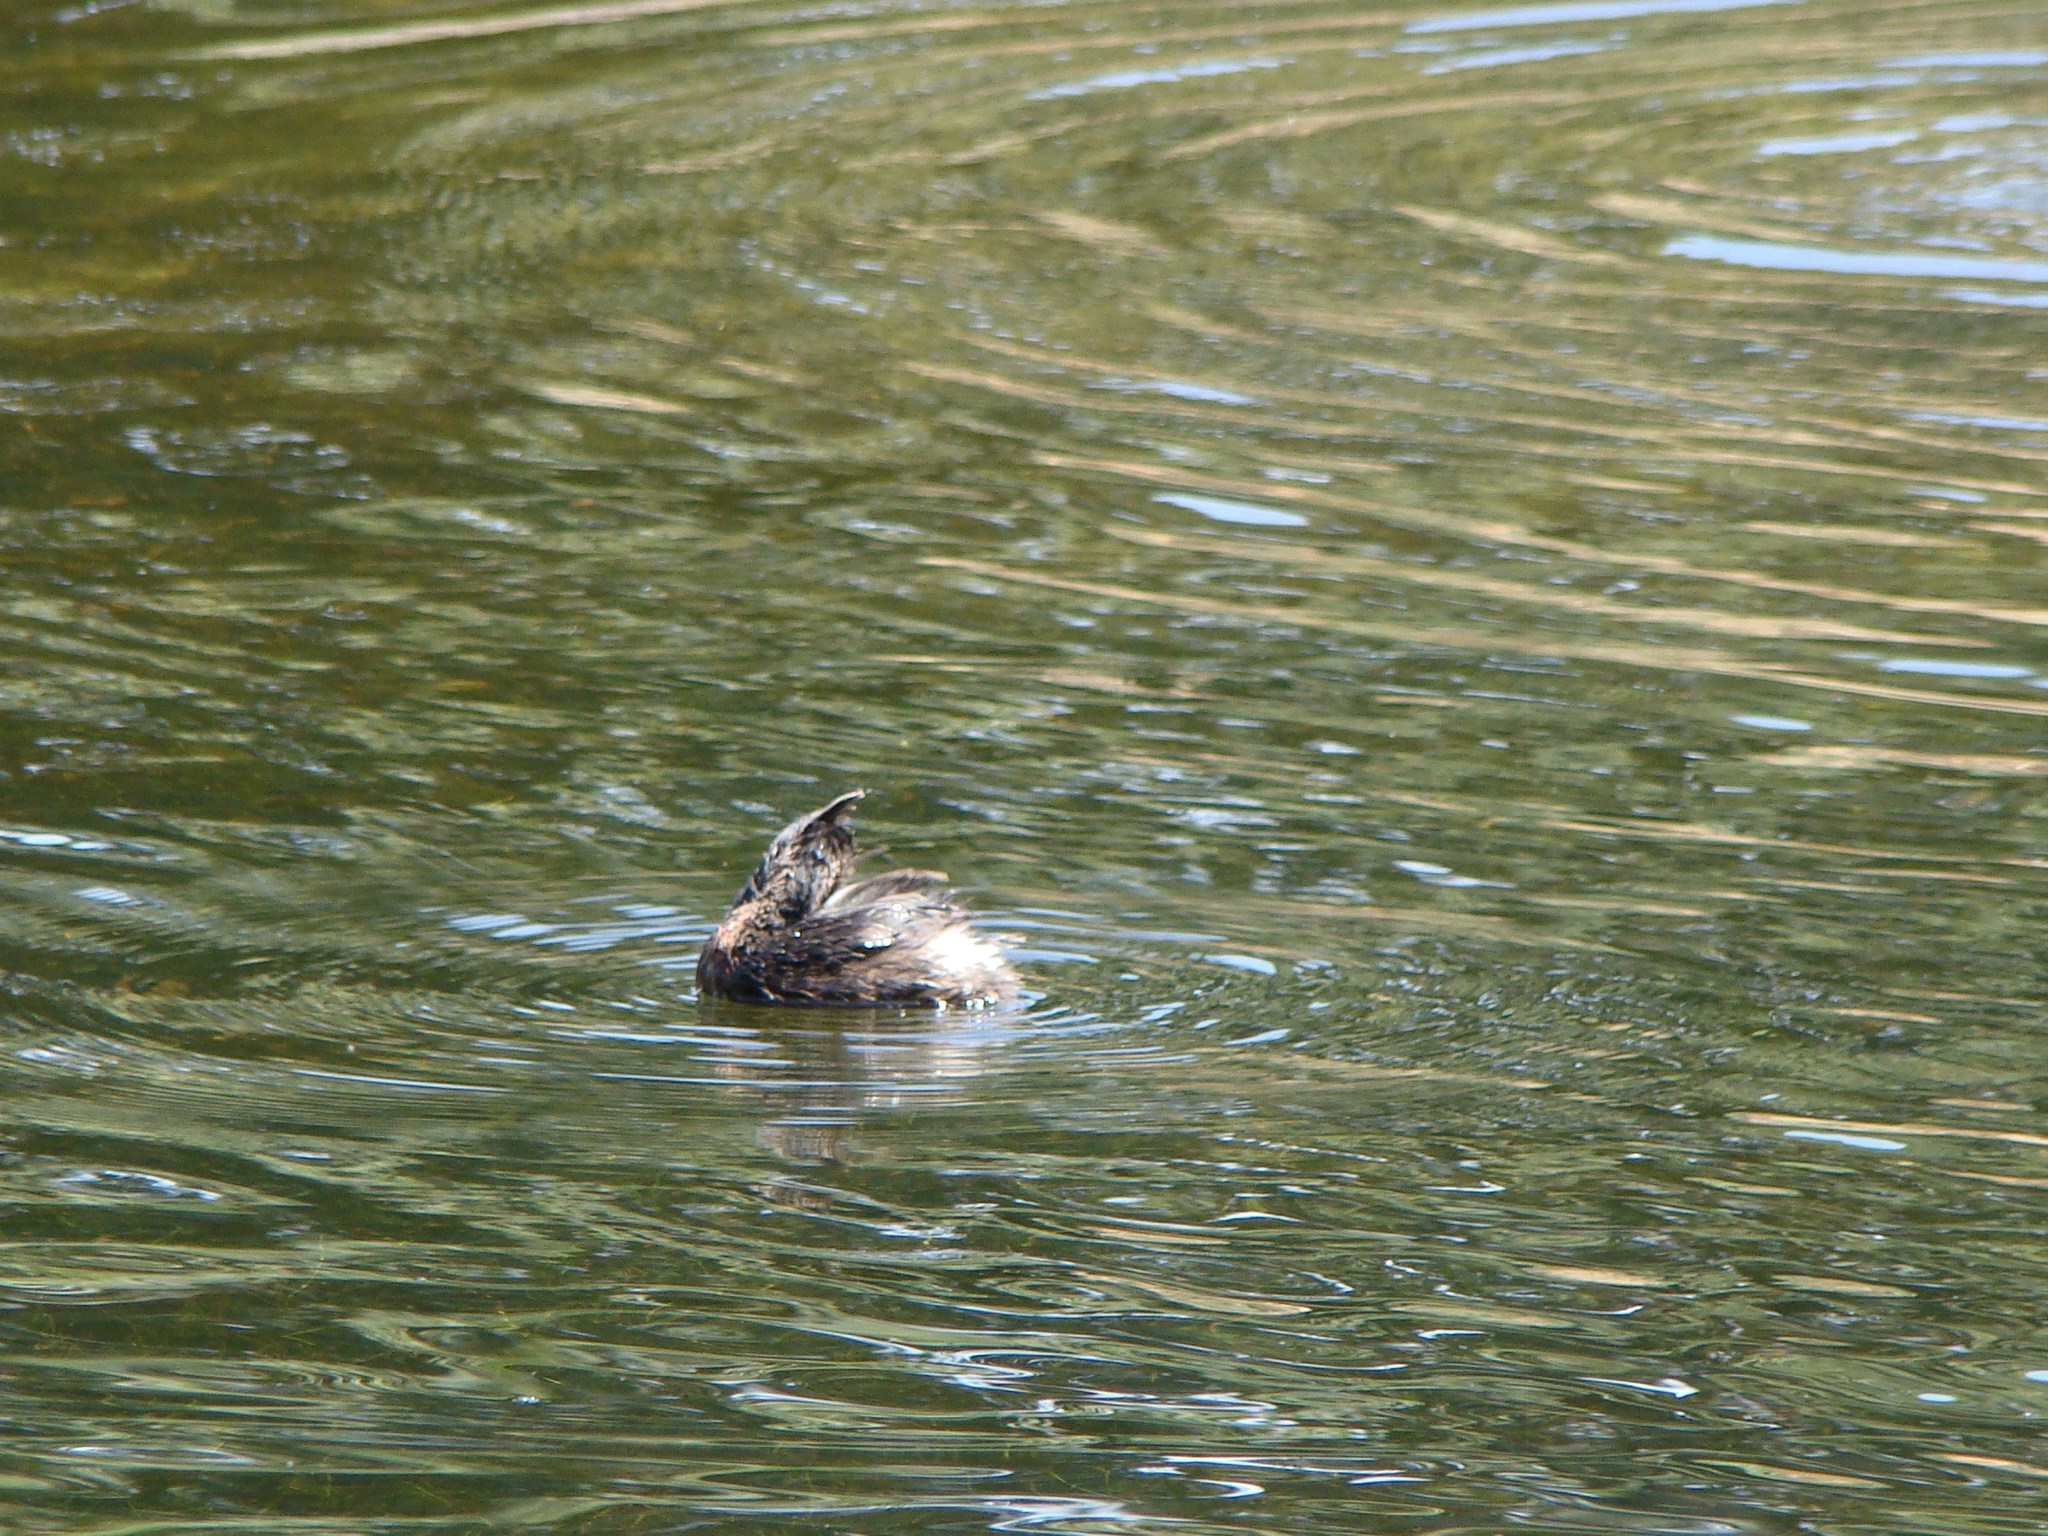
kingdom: Animalia
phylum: Chordata
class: Aves
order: Podicipediformes
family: Podicipedidae
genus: Poliocephalus
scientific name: Poliocephalus rufopectus
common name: New zealand grebe
